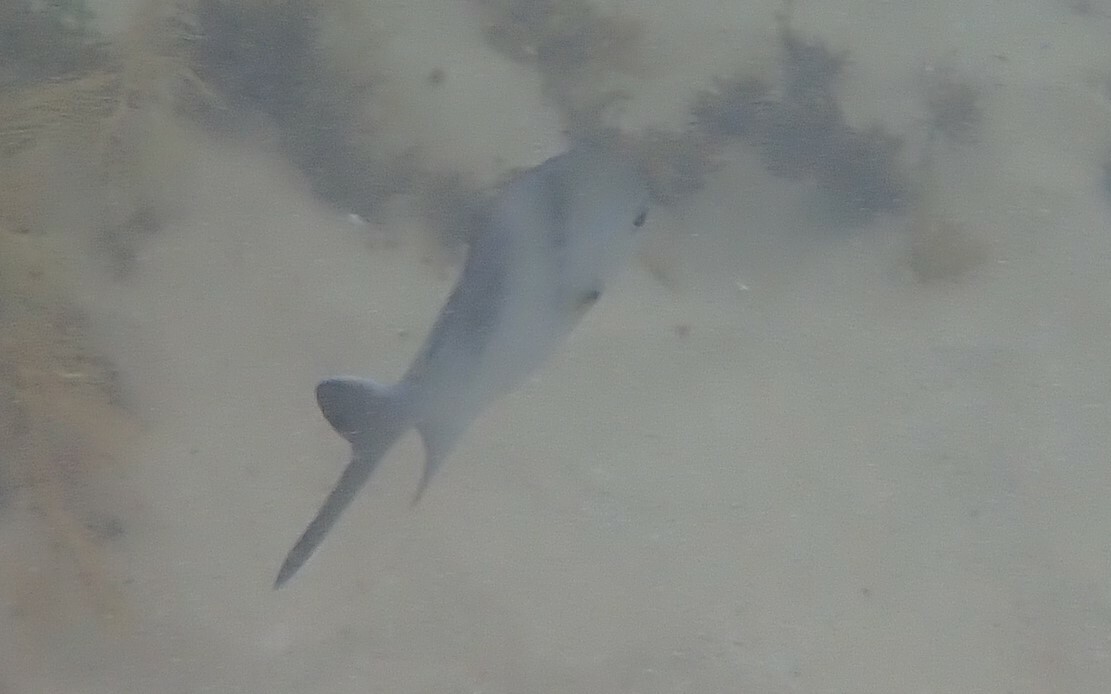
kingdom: Animalia
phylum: Chordata
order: Perciformes
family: Kyphosidae
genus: Scorpis
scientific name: Scorpis aequipinnis
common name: Sea sweep
